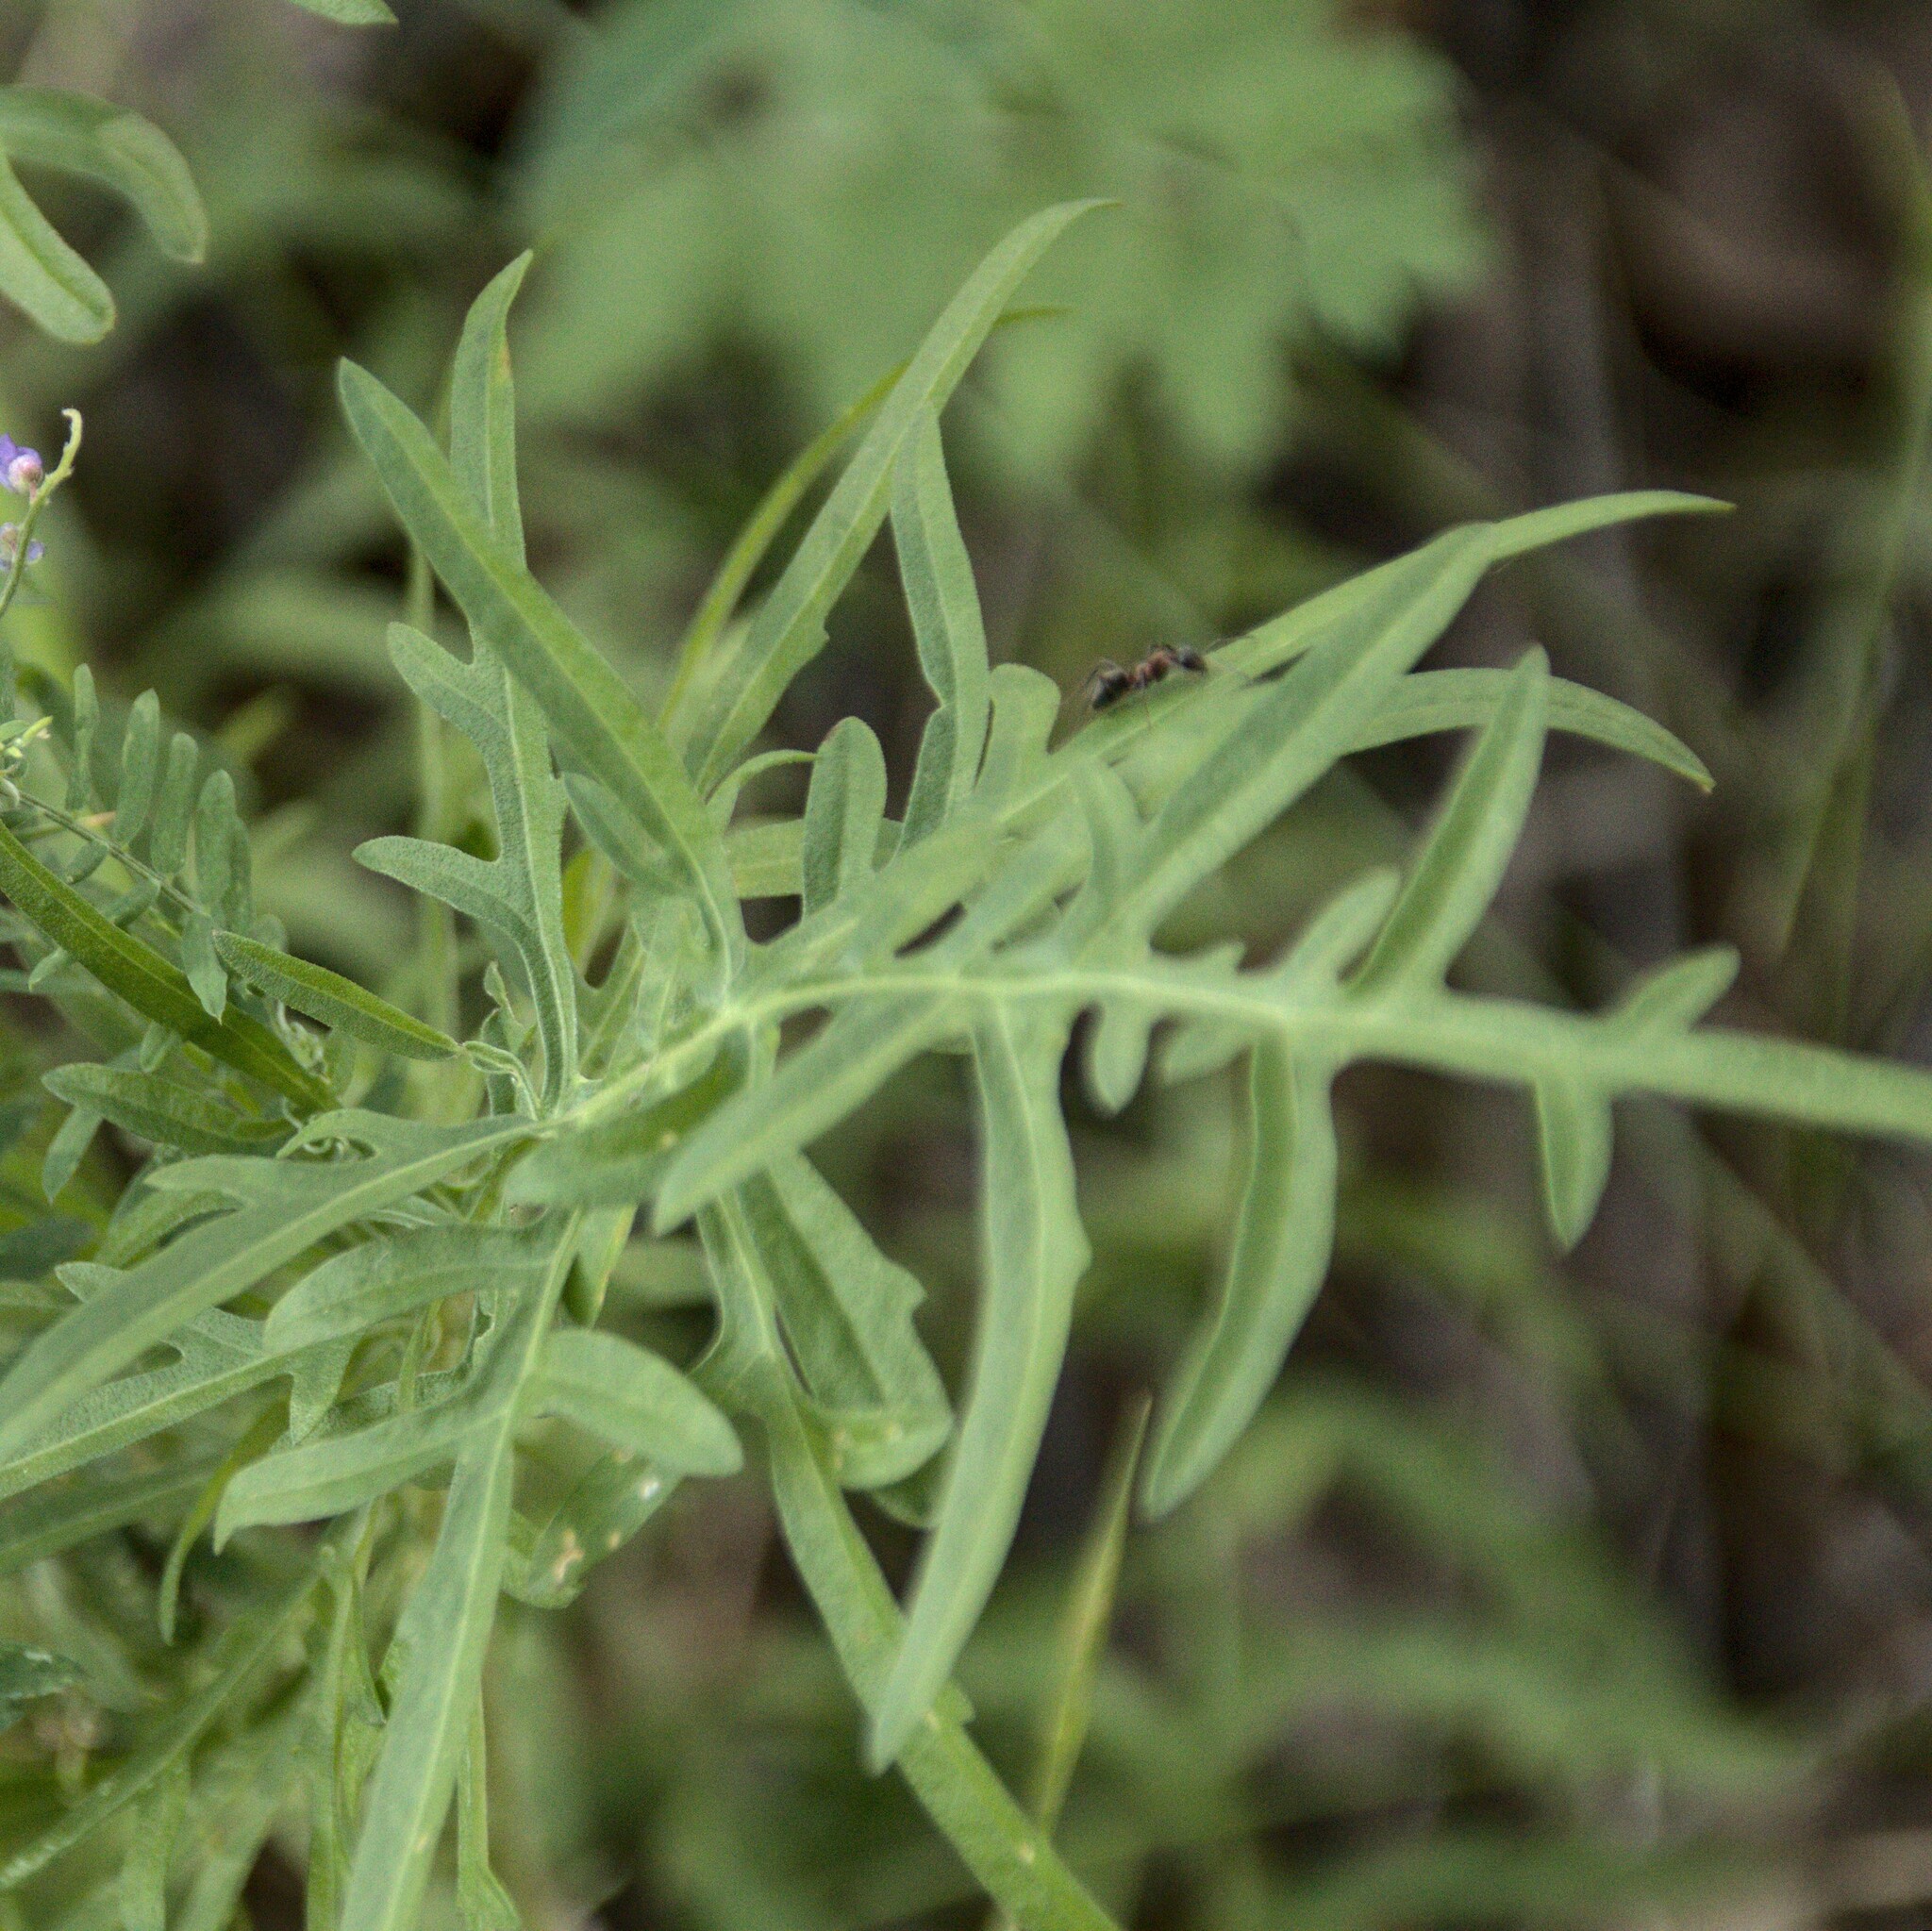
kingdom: Plantae
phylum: Tracheophyta
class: Magnoliopsida
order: Asterales
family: Asteraceae
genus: Centaurea
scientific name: Centaurea scabiosa
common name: Greater knapweed
